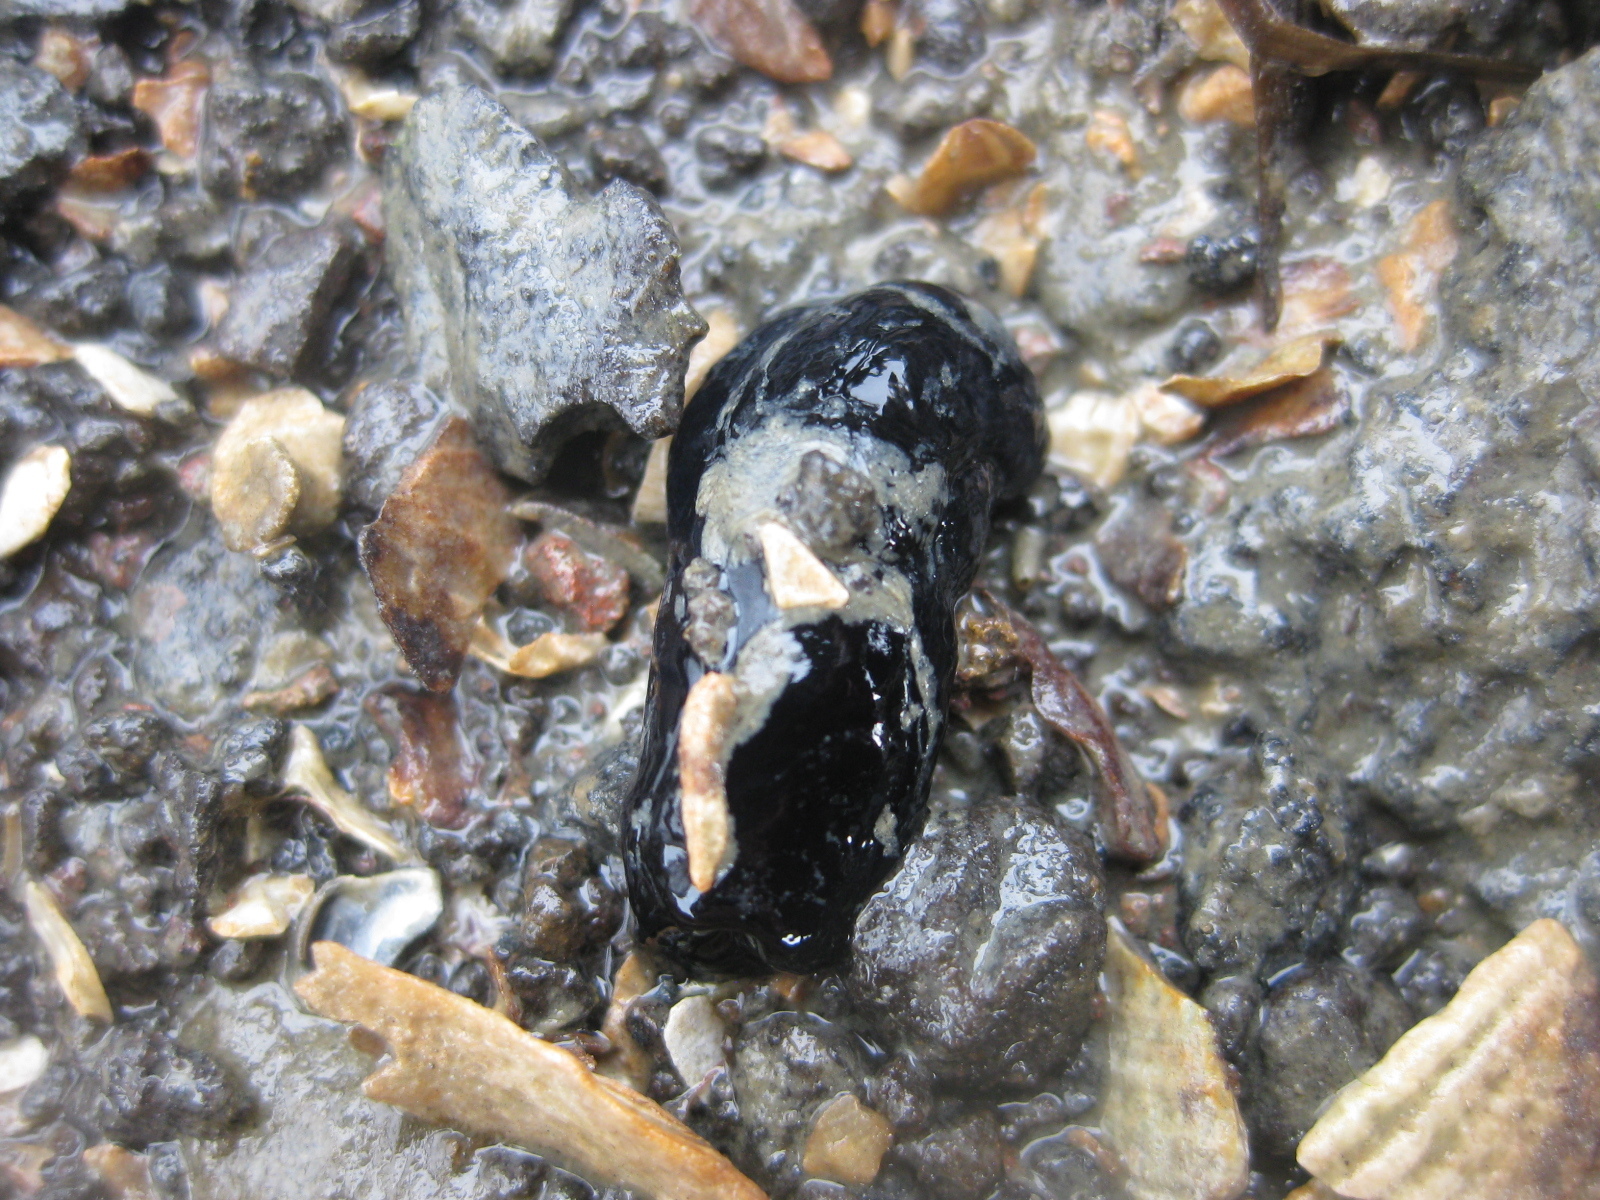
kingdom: Animalia
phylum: Mollusca
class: Gastropoda
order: Cephalaspidea
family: Aglajidae
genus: Melanochlamys
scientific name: Melanochlamys cylindrica
